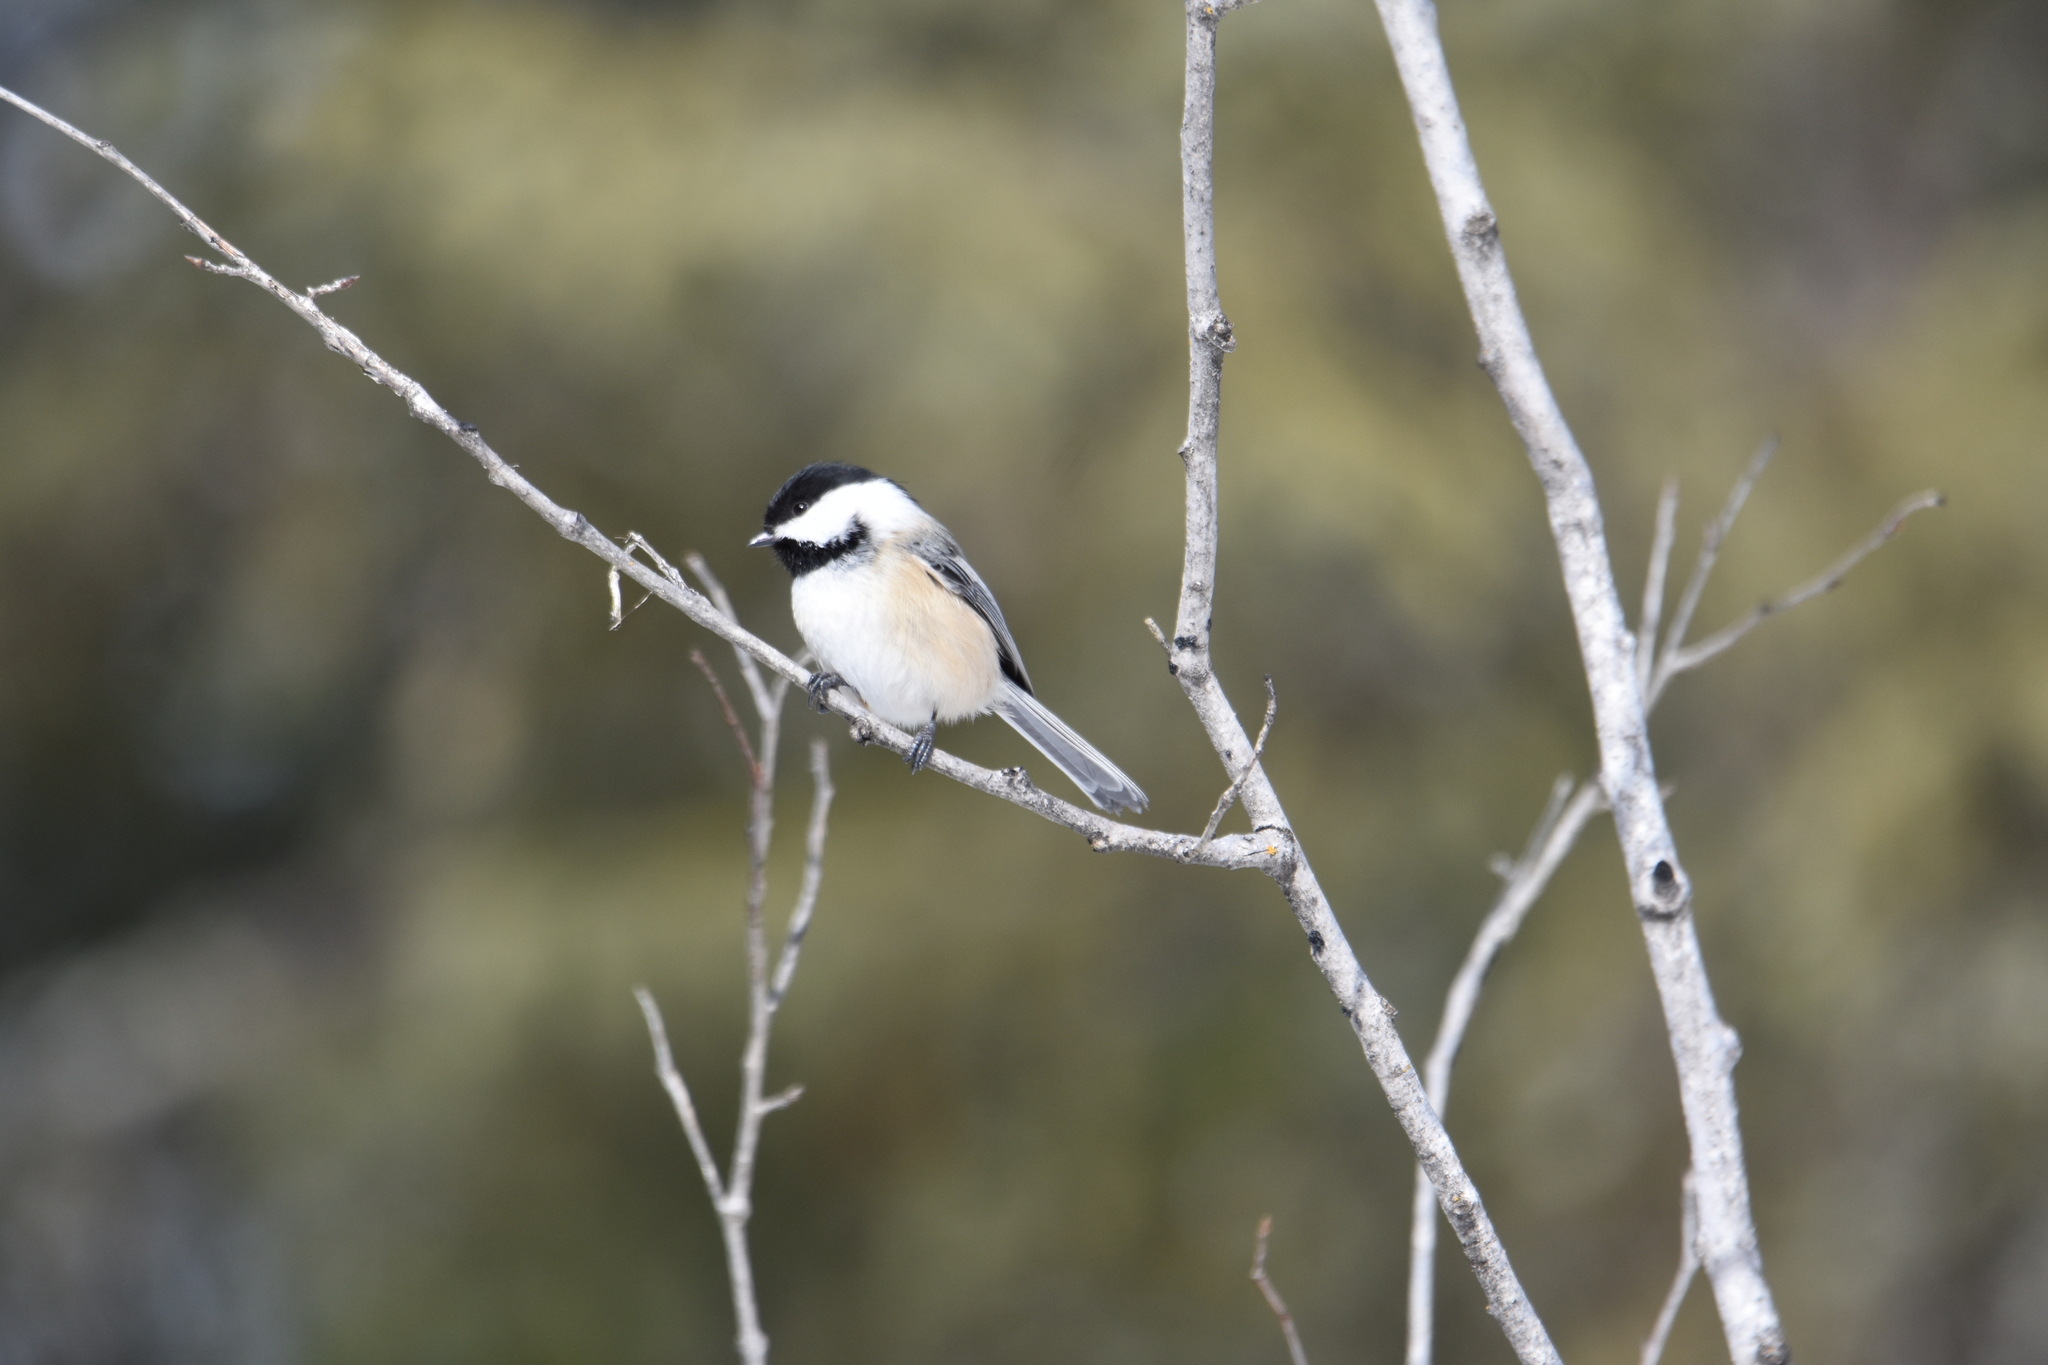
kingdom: Animalia
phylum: Chordata
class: Aves
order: Passeriformes
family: Paridae
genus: Poecile
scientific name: Poecile atricapillus
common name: Black-capped chickadee
